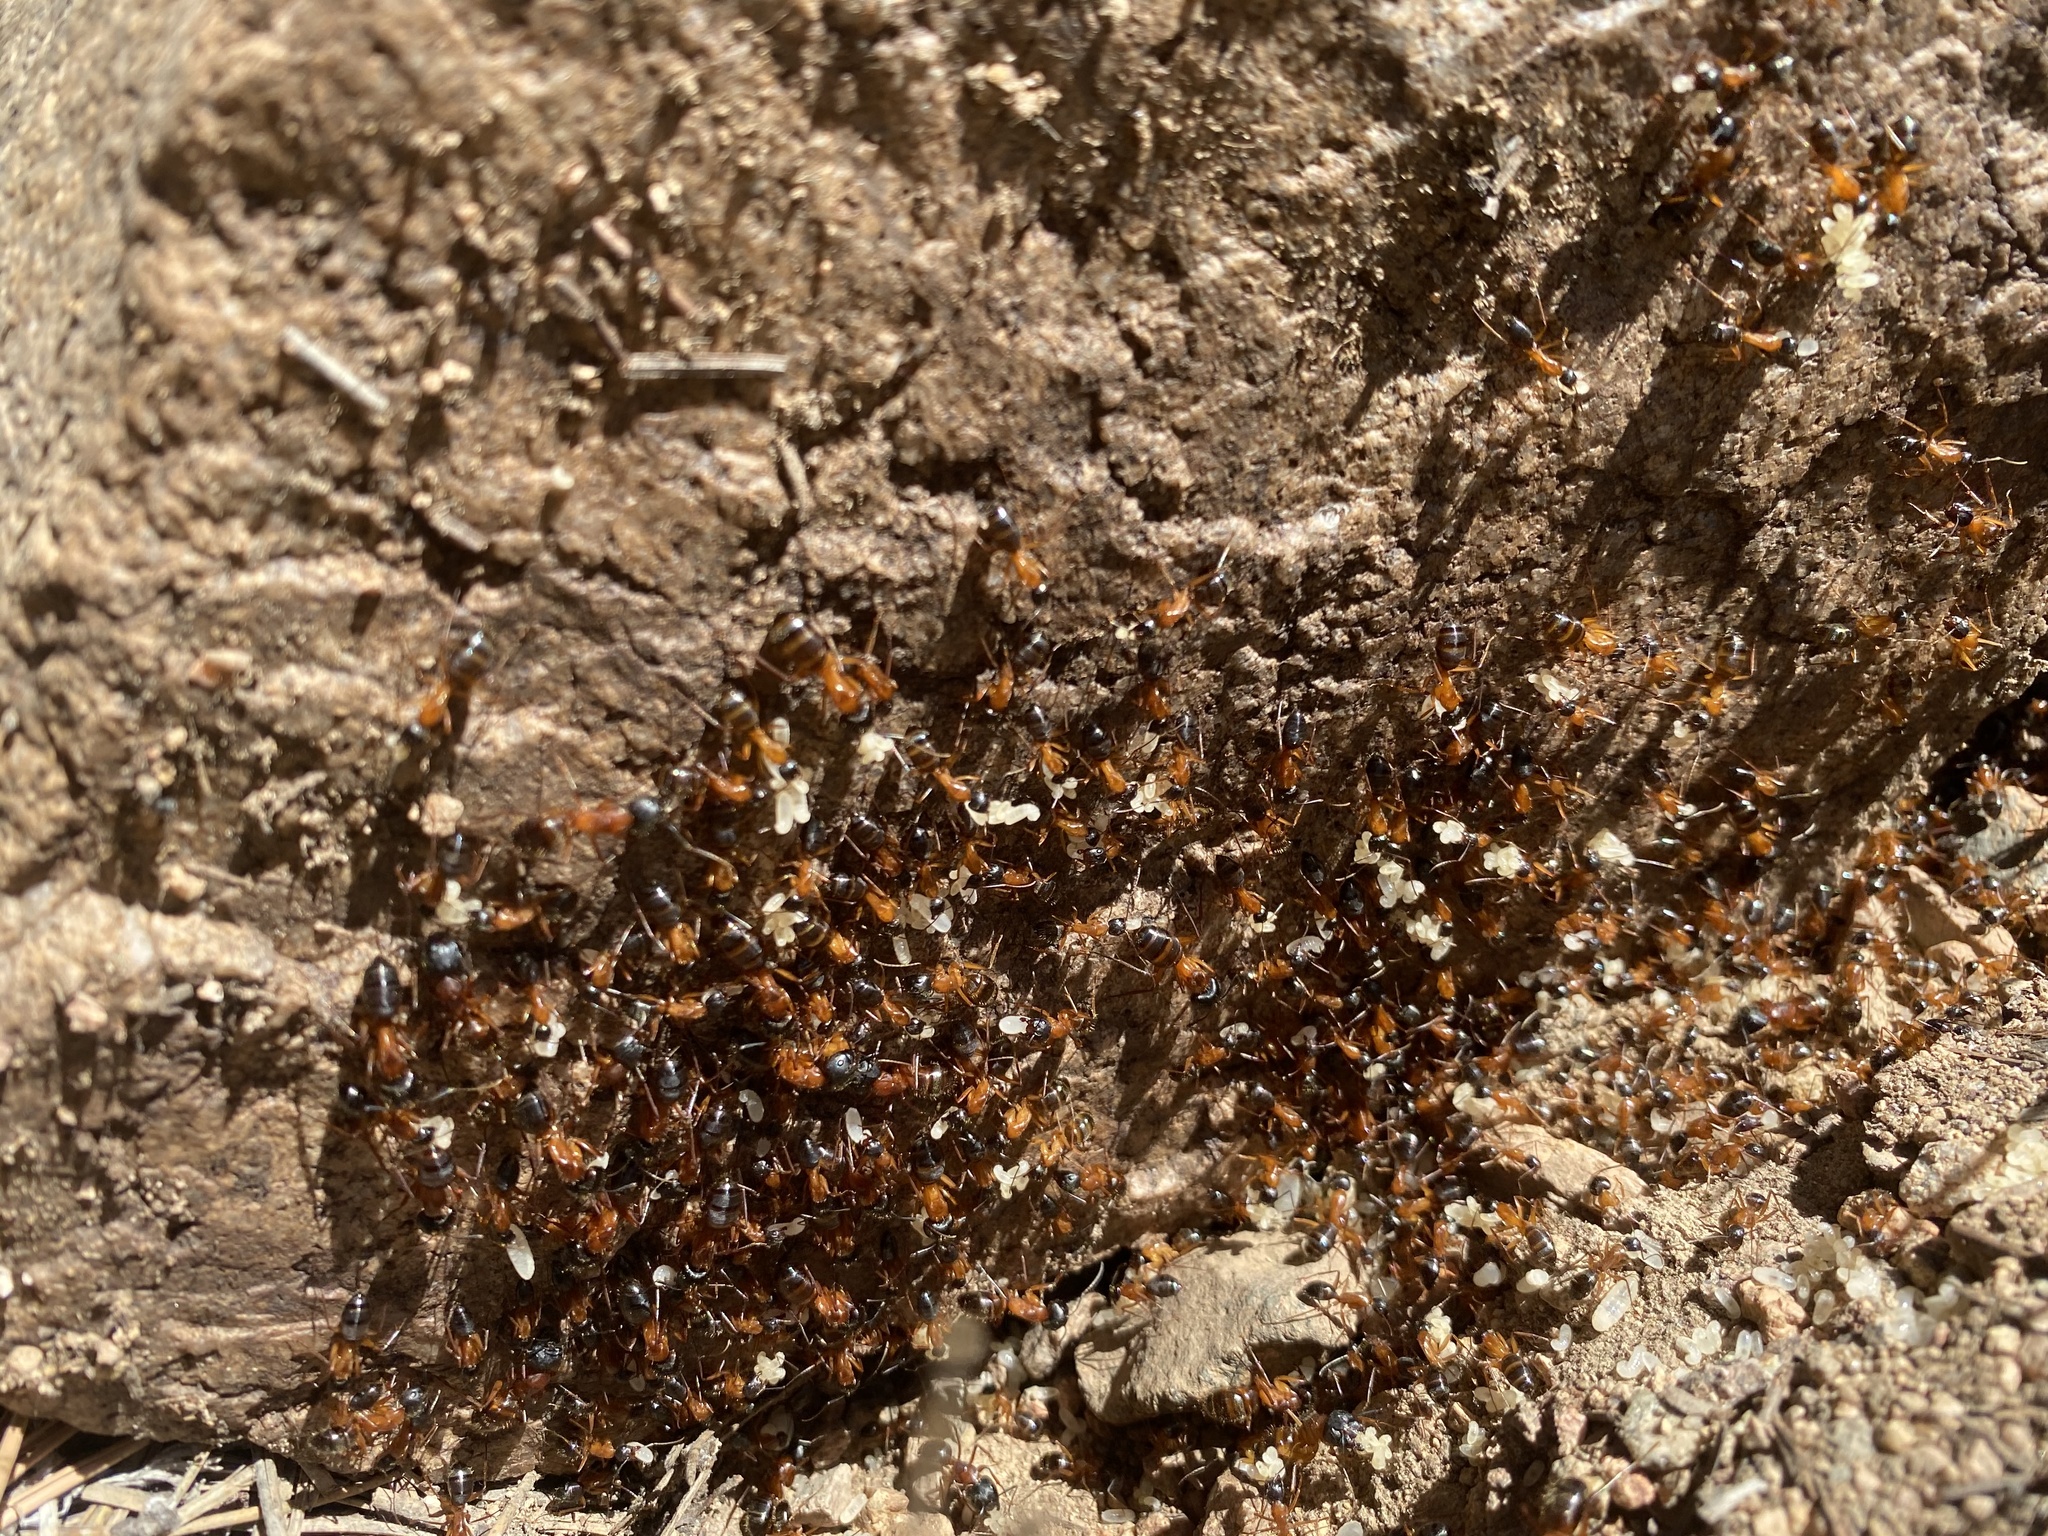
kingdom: Animalia
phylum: Arthropoda
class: Insecta
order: Hymenoptera
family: Formicidae
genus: Camponotus
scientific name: Camponotus semitestaceus
